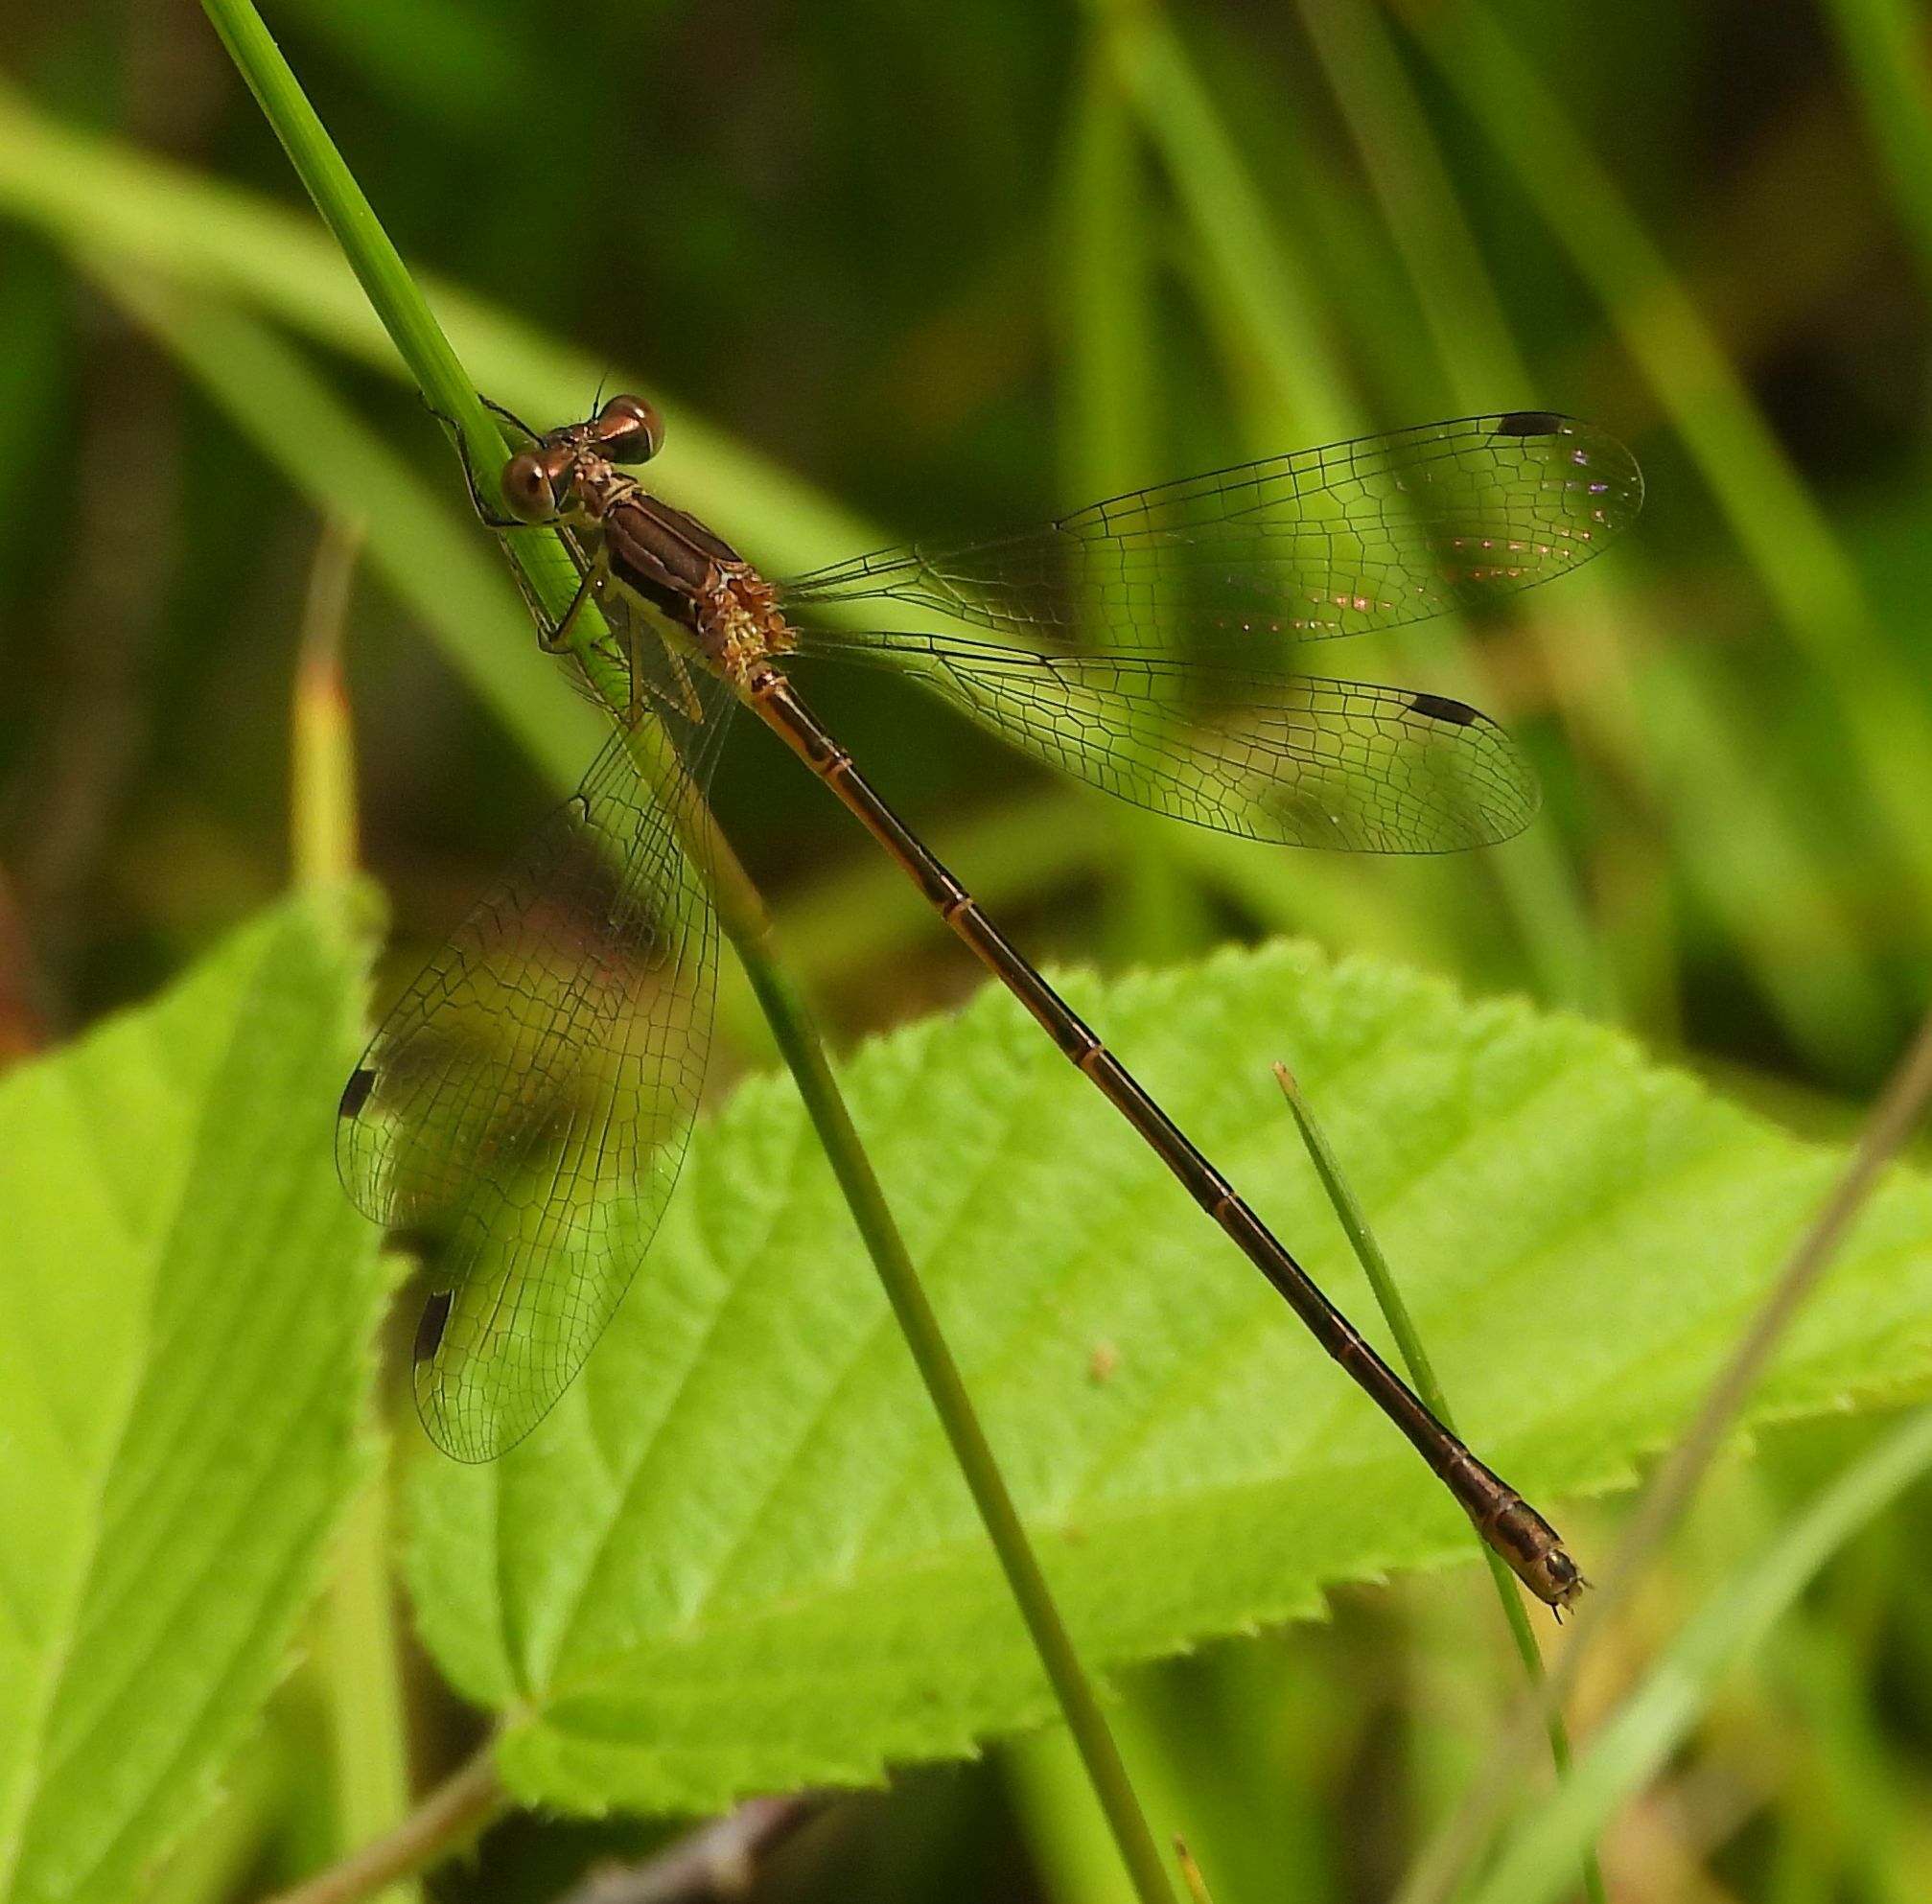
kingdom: Animalia
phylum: Arthropoda
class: Insecta
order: Odonata
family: Lestidae
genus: Lestes
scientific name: Lestes rectangularis
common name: Slender spreadwing
